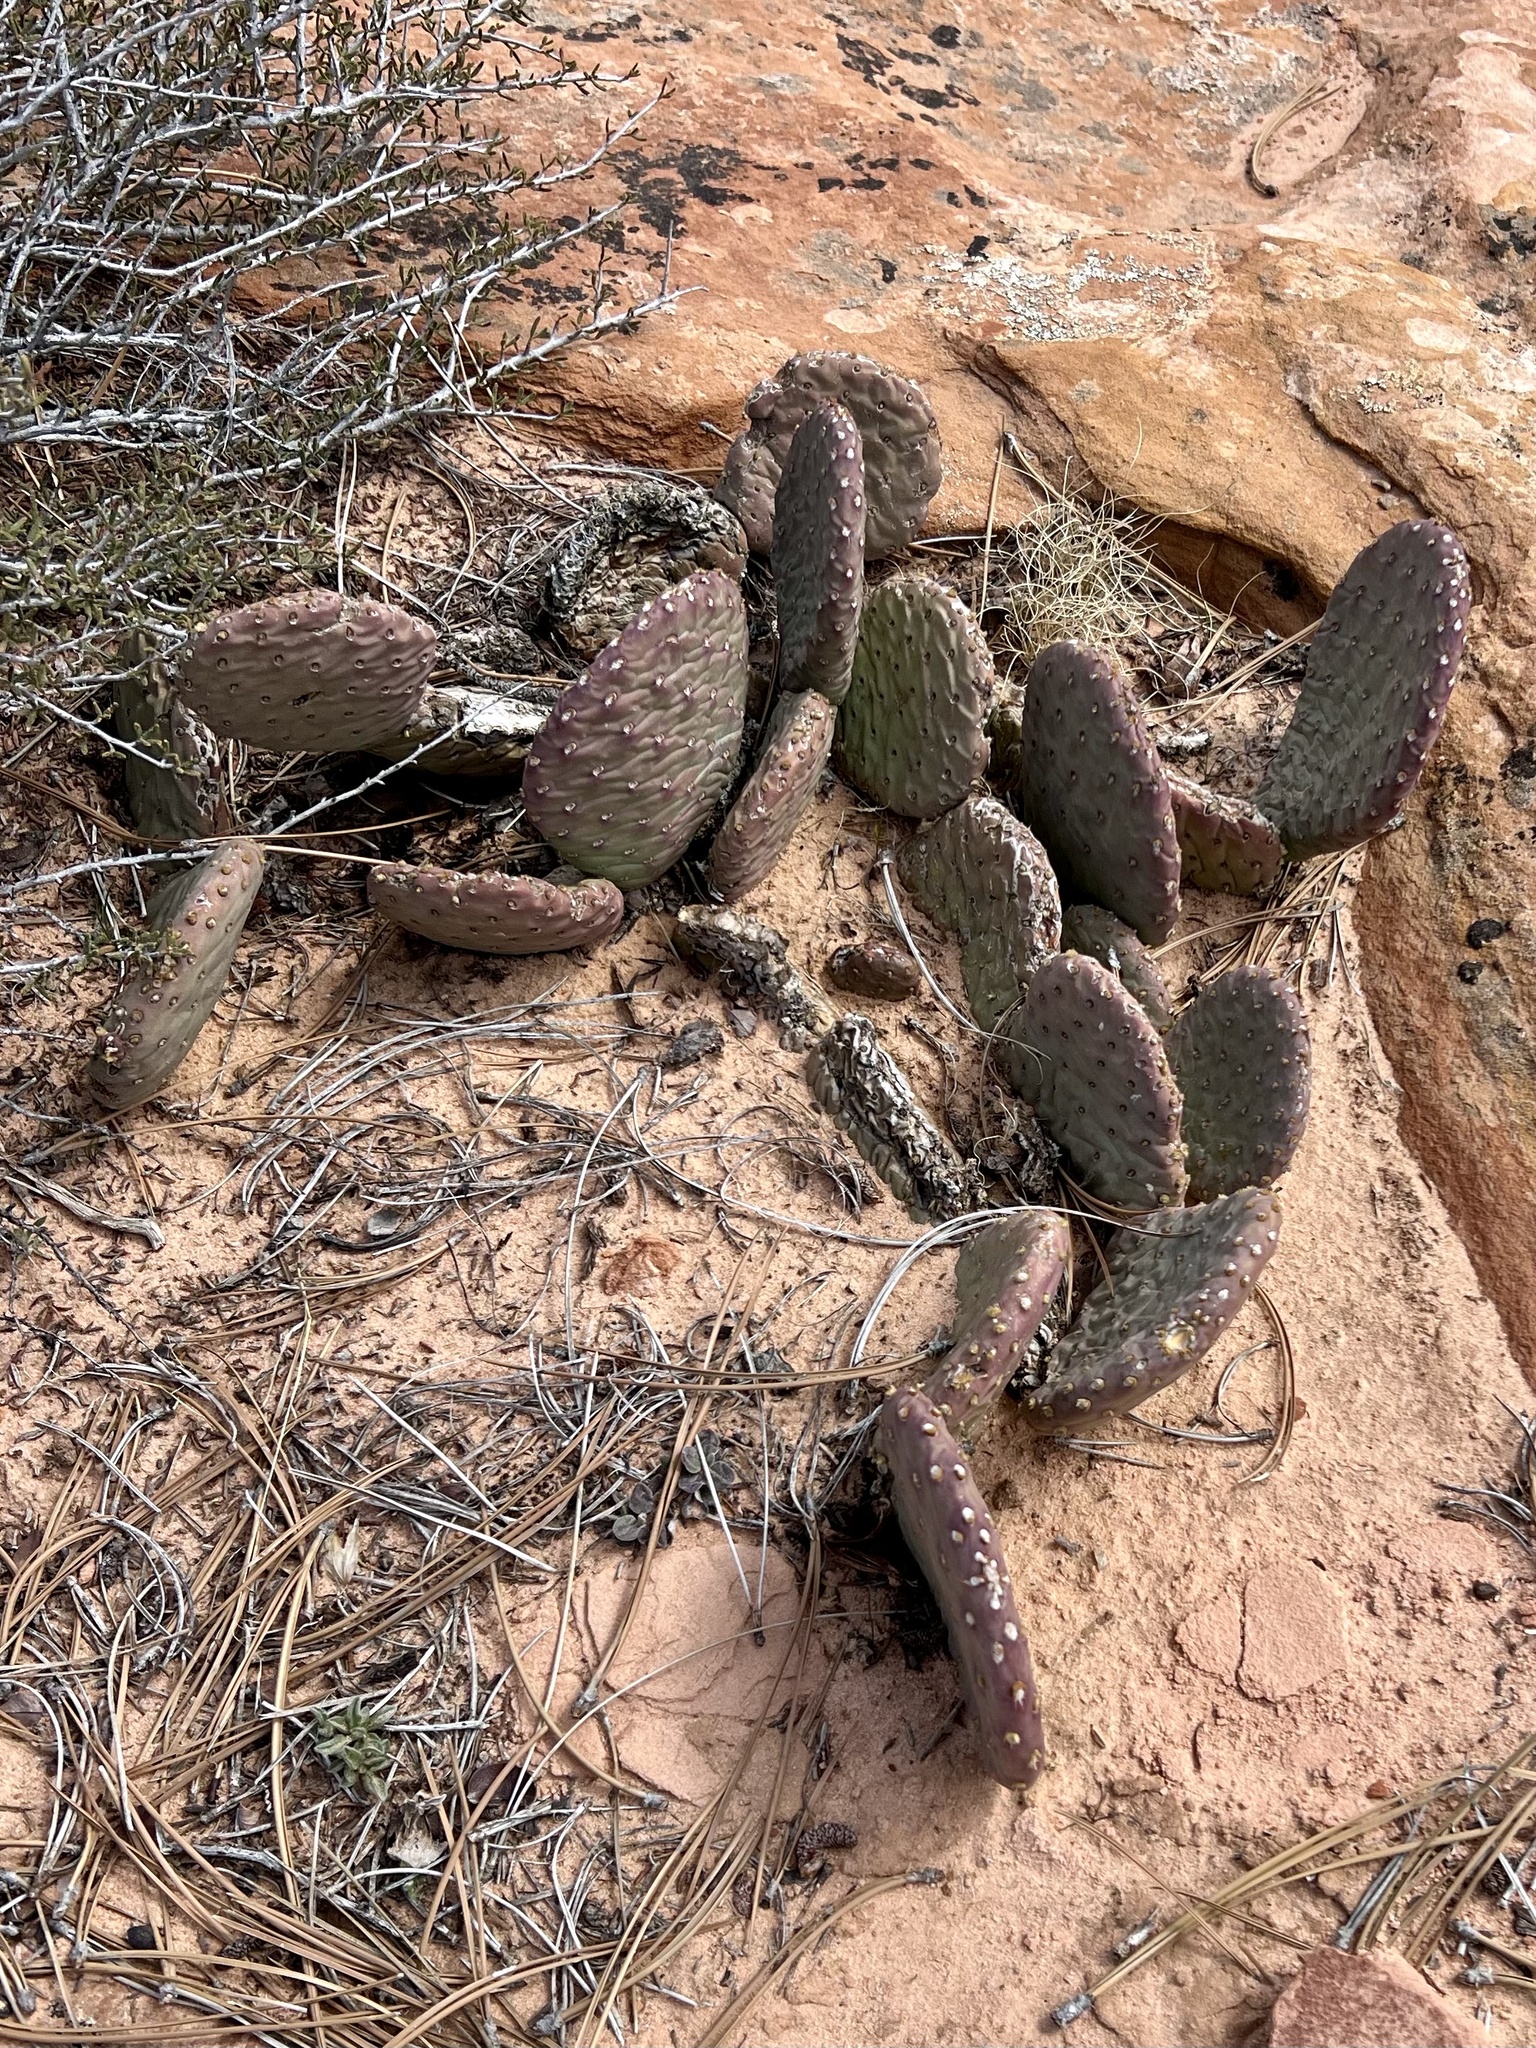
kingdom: Plantae
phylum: Tracheophyta
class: Magnoliopsida
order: Caryophyllales
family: Cactaceae
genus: Opuntia
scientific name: Opuntia aurea
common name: Golden prickly-pear
